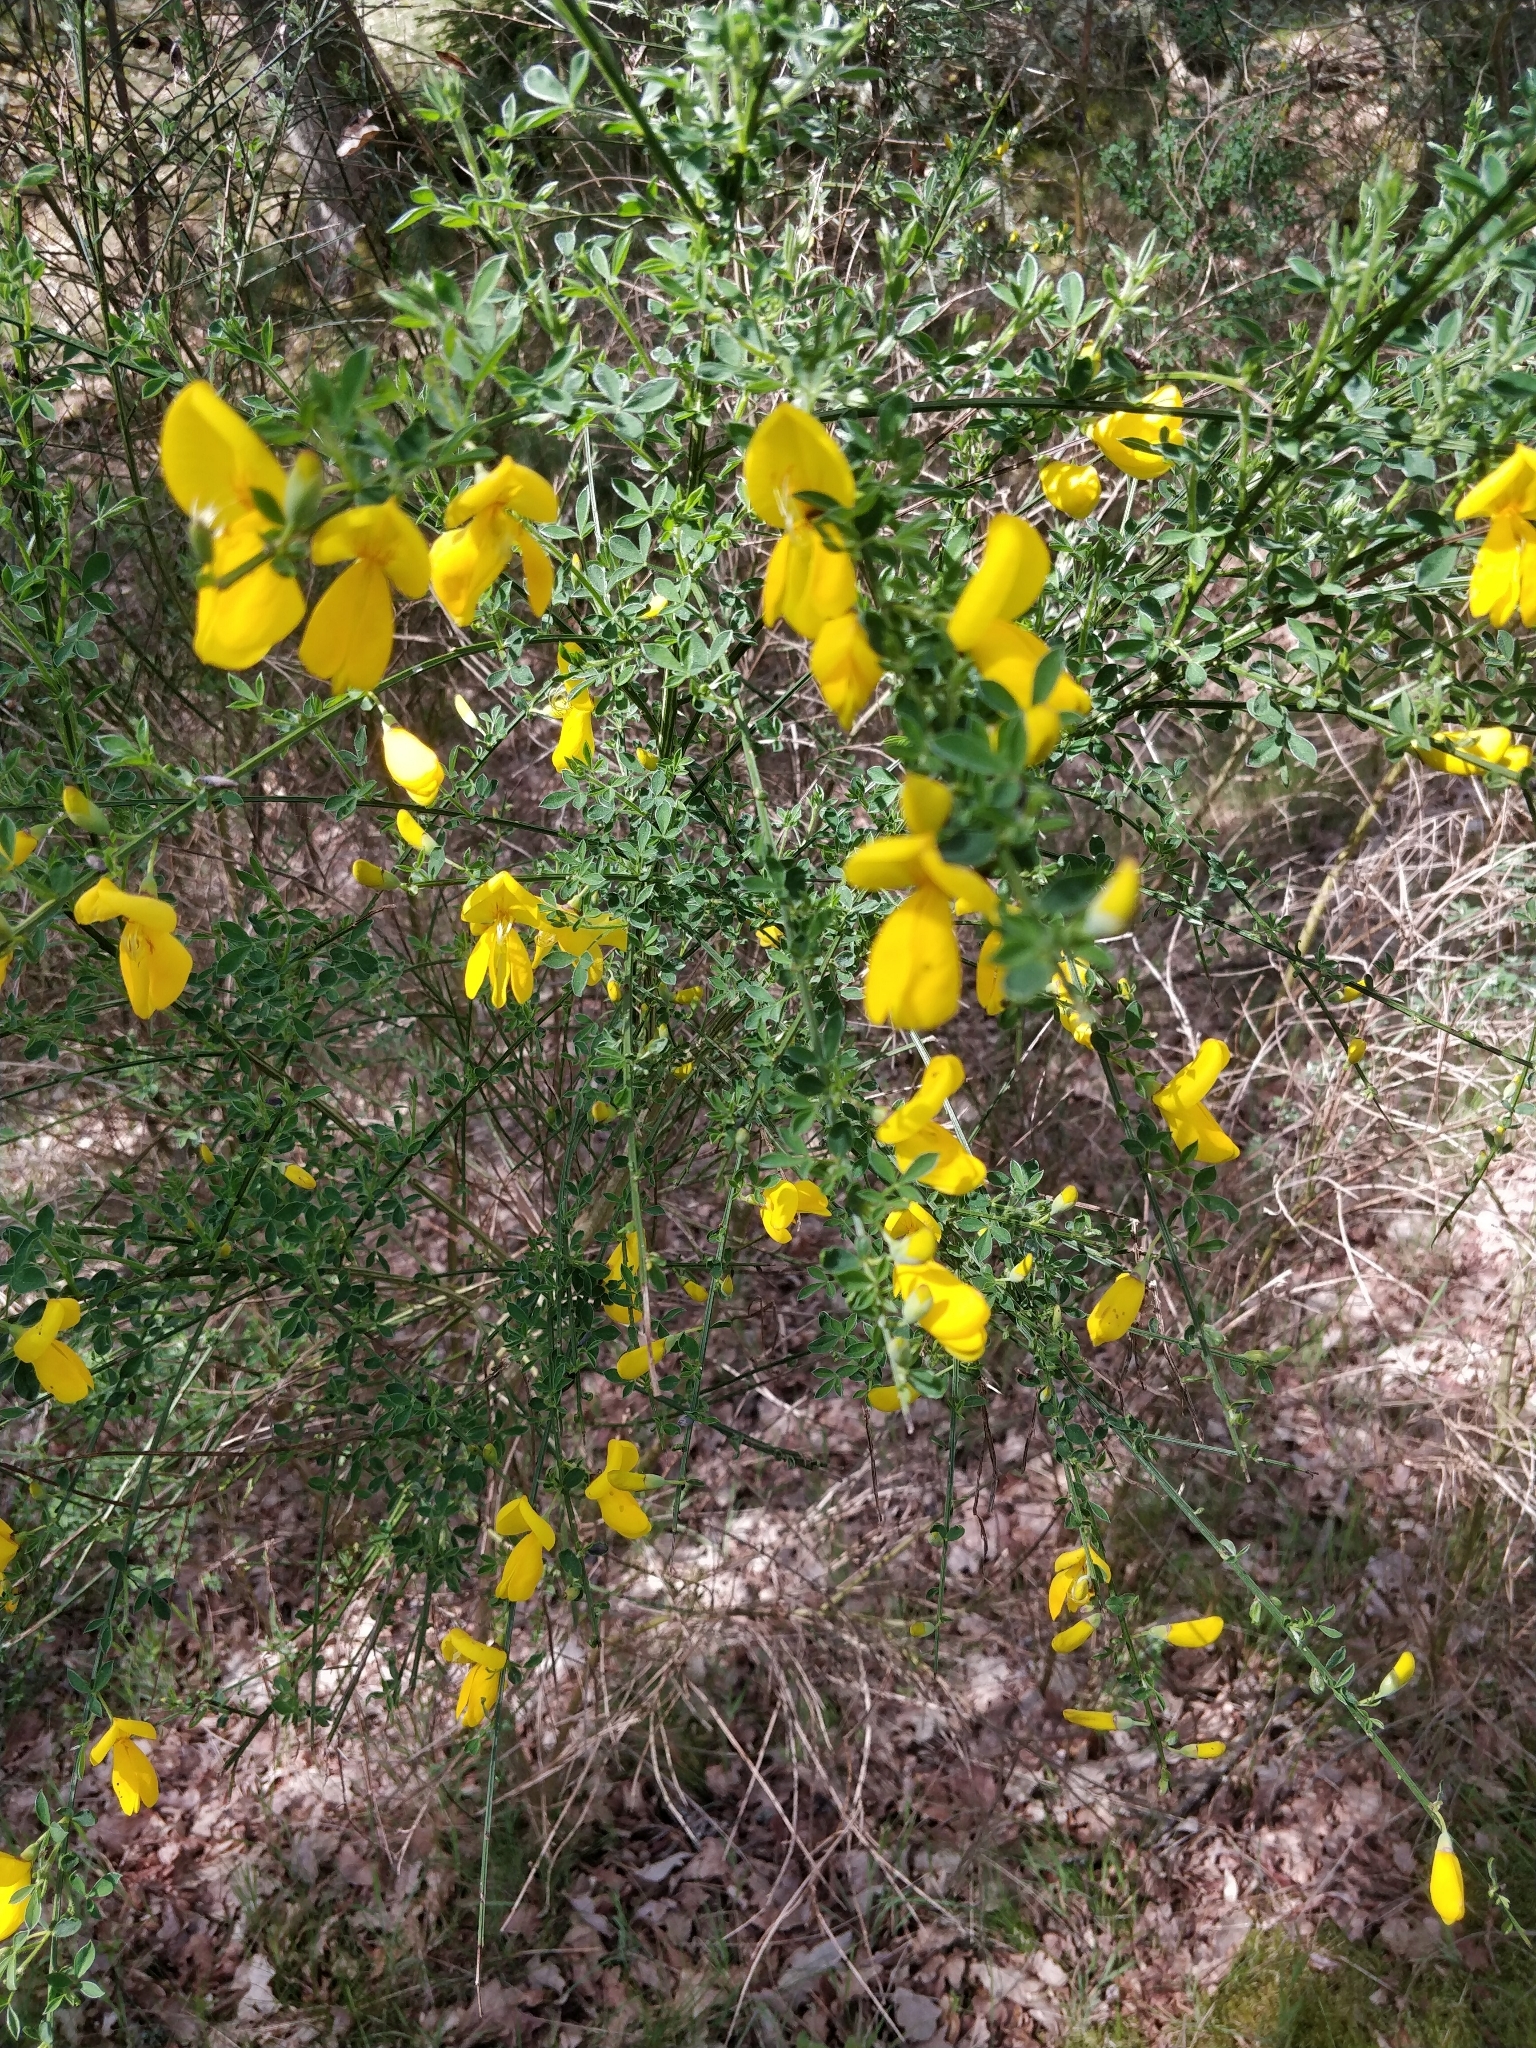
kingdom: Plantae
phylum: Tracheophyta
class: Magnoliopsida
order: Fabales
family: Fabaceae
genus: Cytisus
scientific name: Cytisus scoparius
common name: Scotch broom
